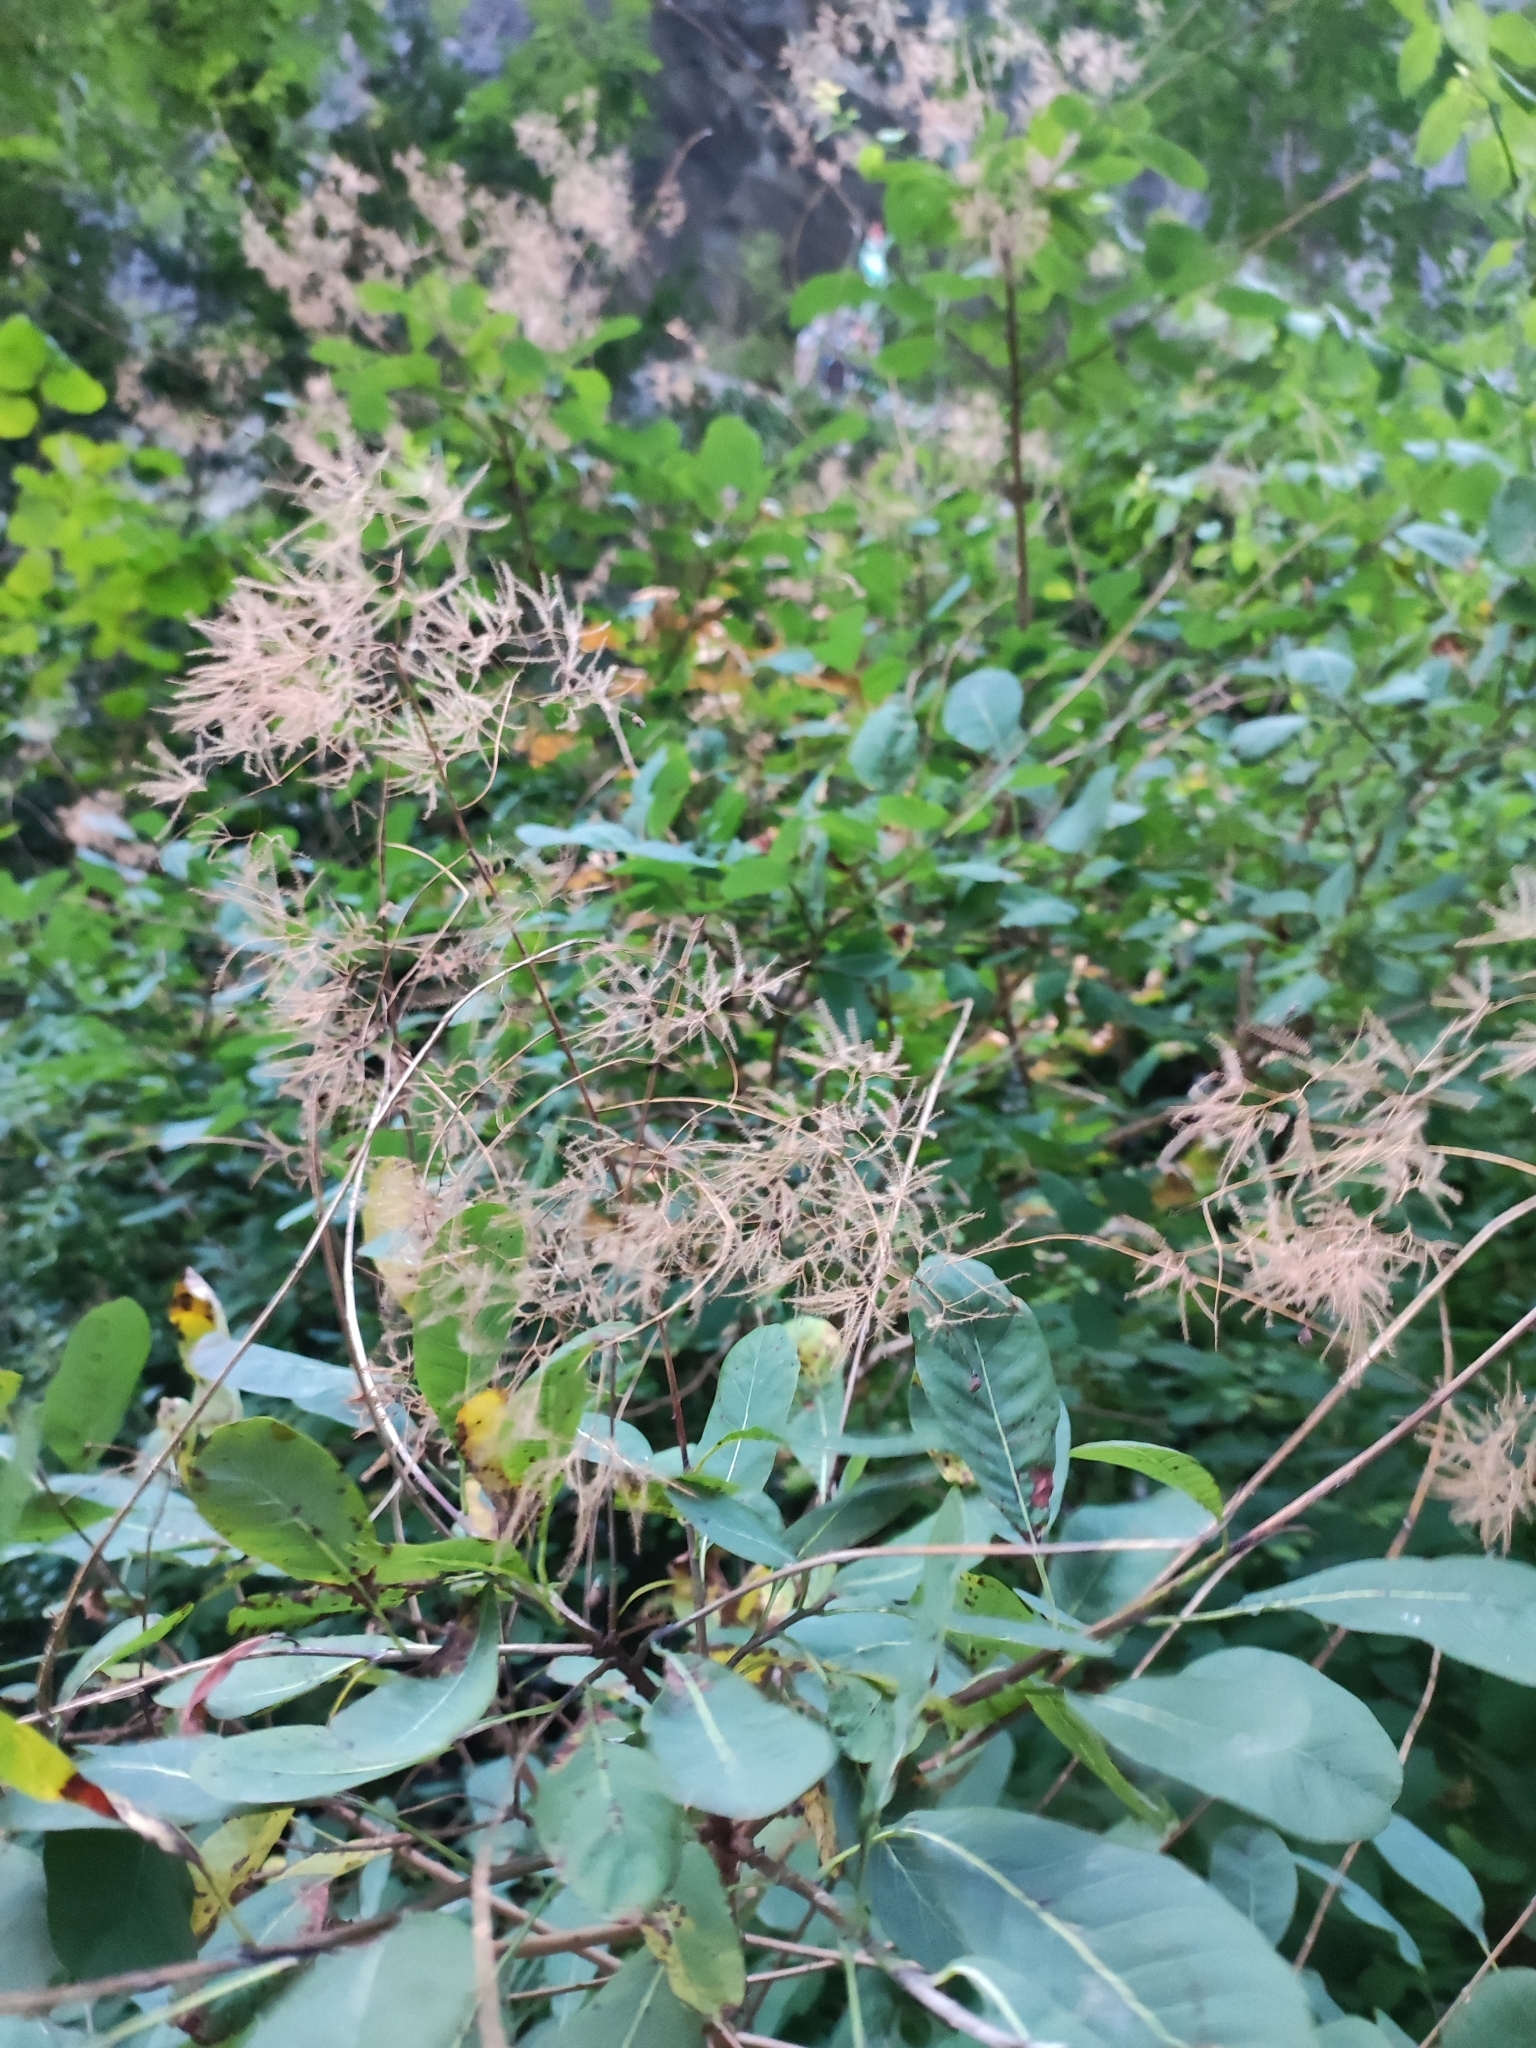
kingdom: Plantae
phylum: Tracheophyta
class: Magnoliopsida
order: Sapindales
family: Anacardiaceae
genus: Cotinus
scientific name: Cotinus coggygria
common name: Smoke-tree
